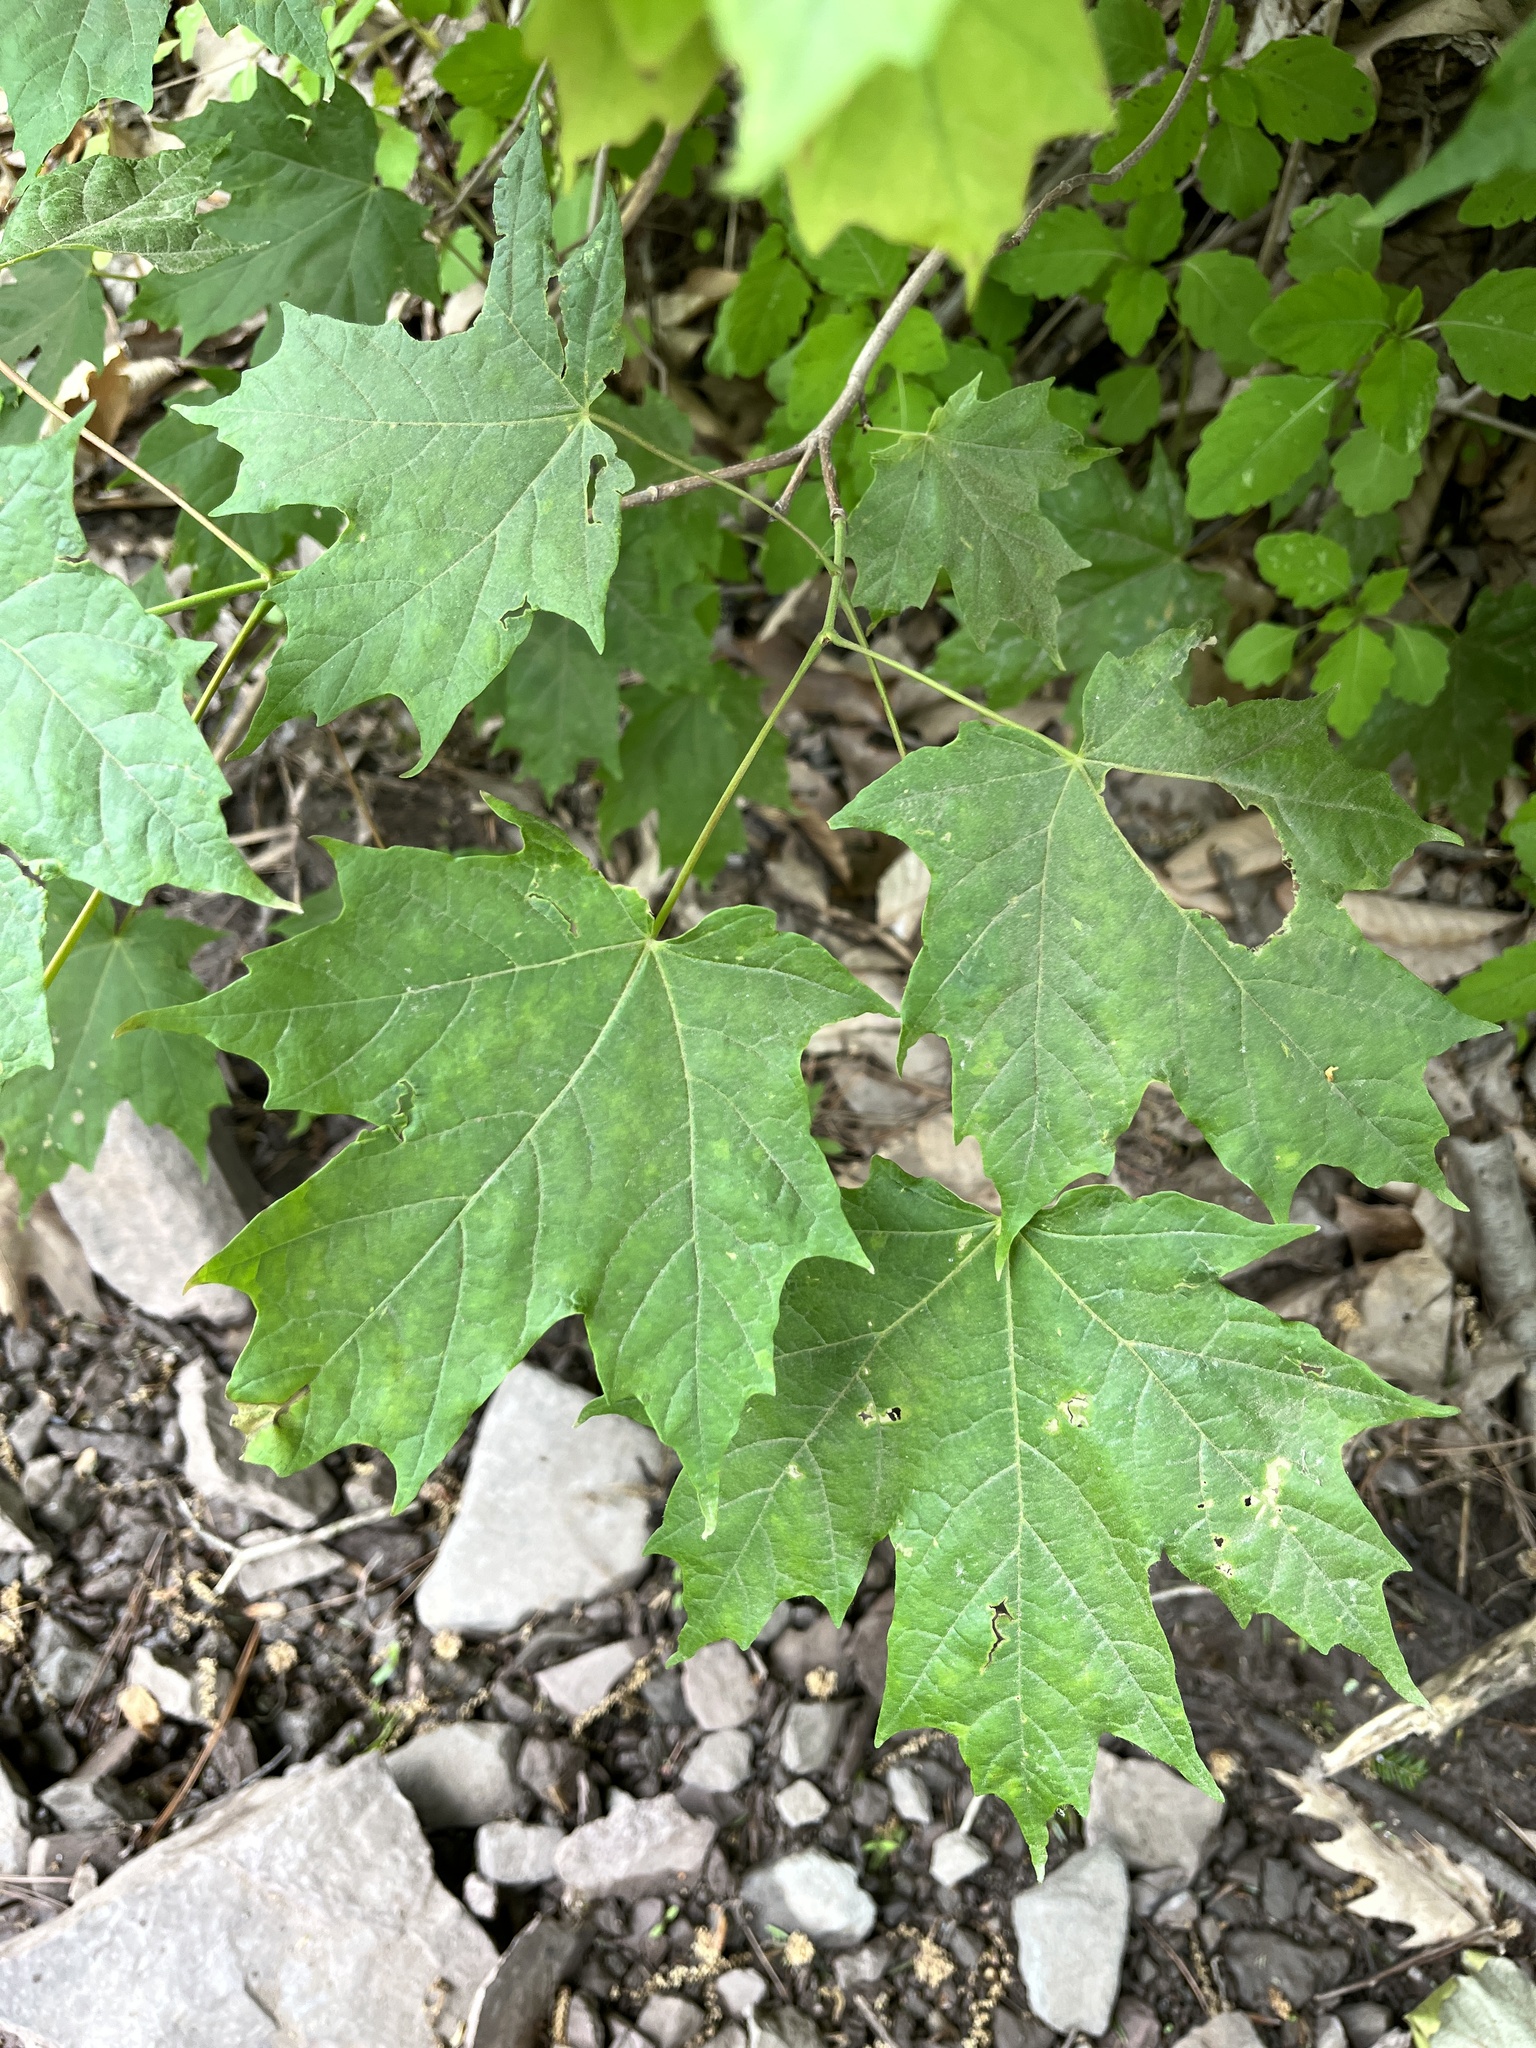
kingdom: Plantae
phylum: Tracheophyta
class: Magnoliopsida
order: Sapindales
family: Sapindaceae
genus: Acer
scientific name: Acer saccharum
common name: Sugar maple
